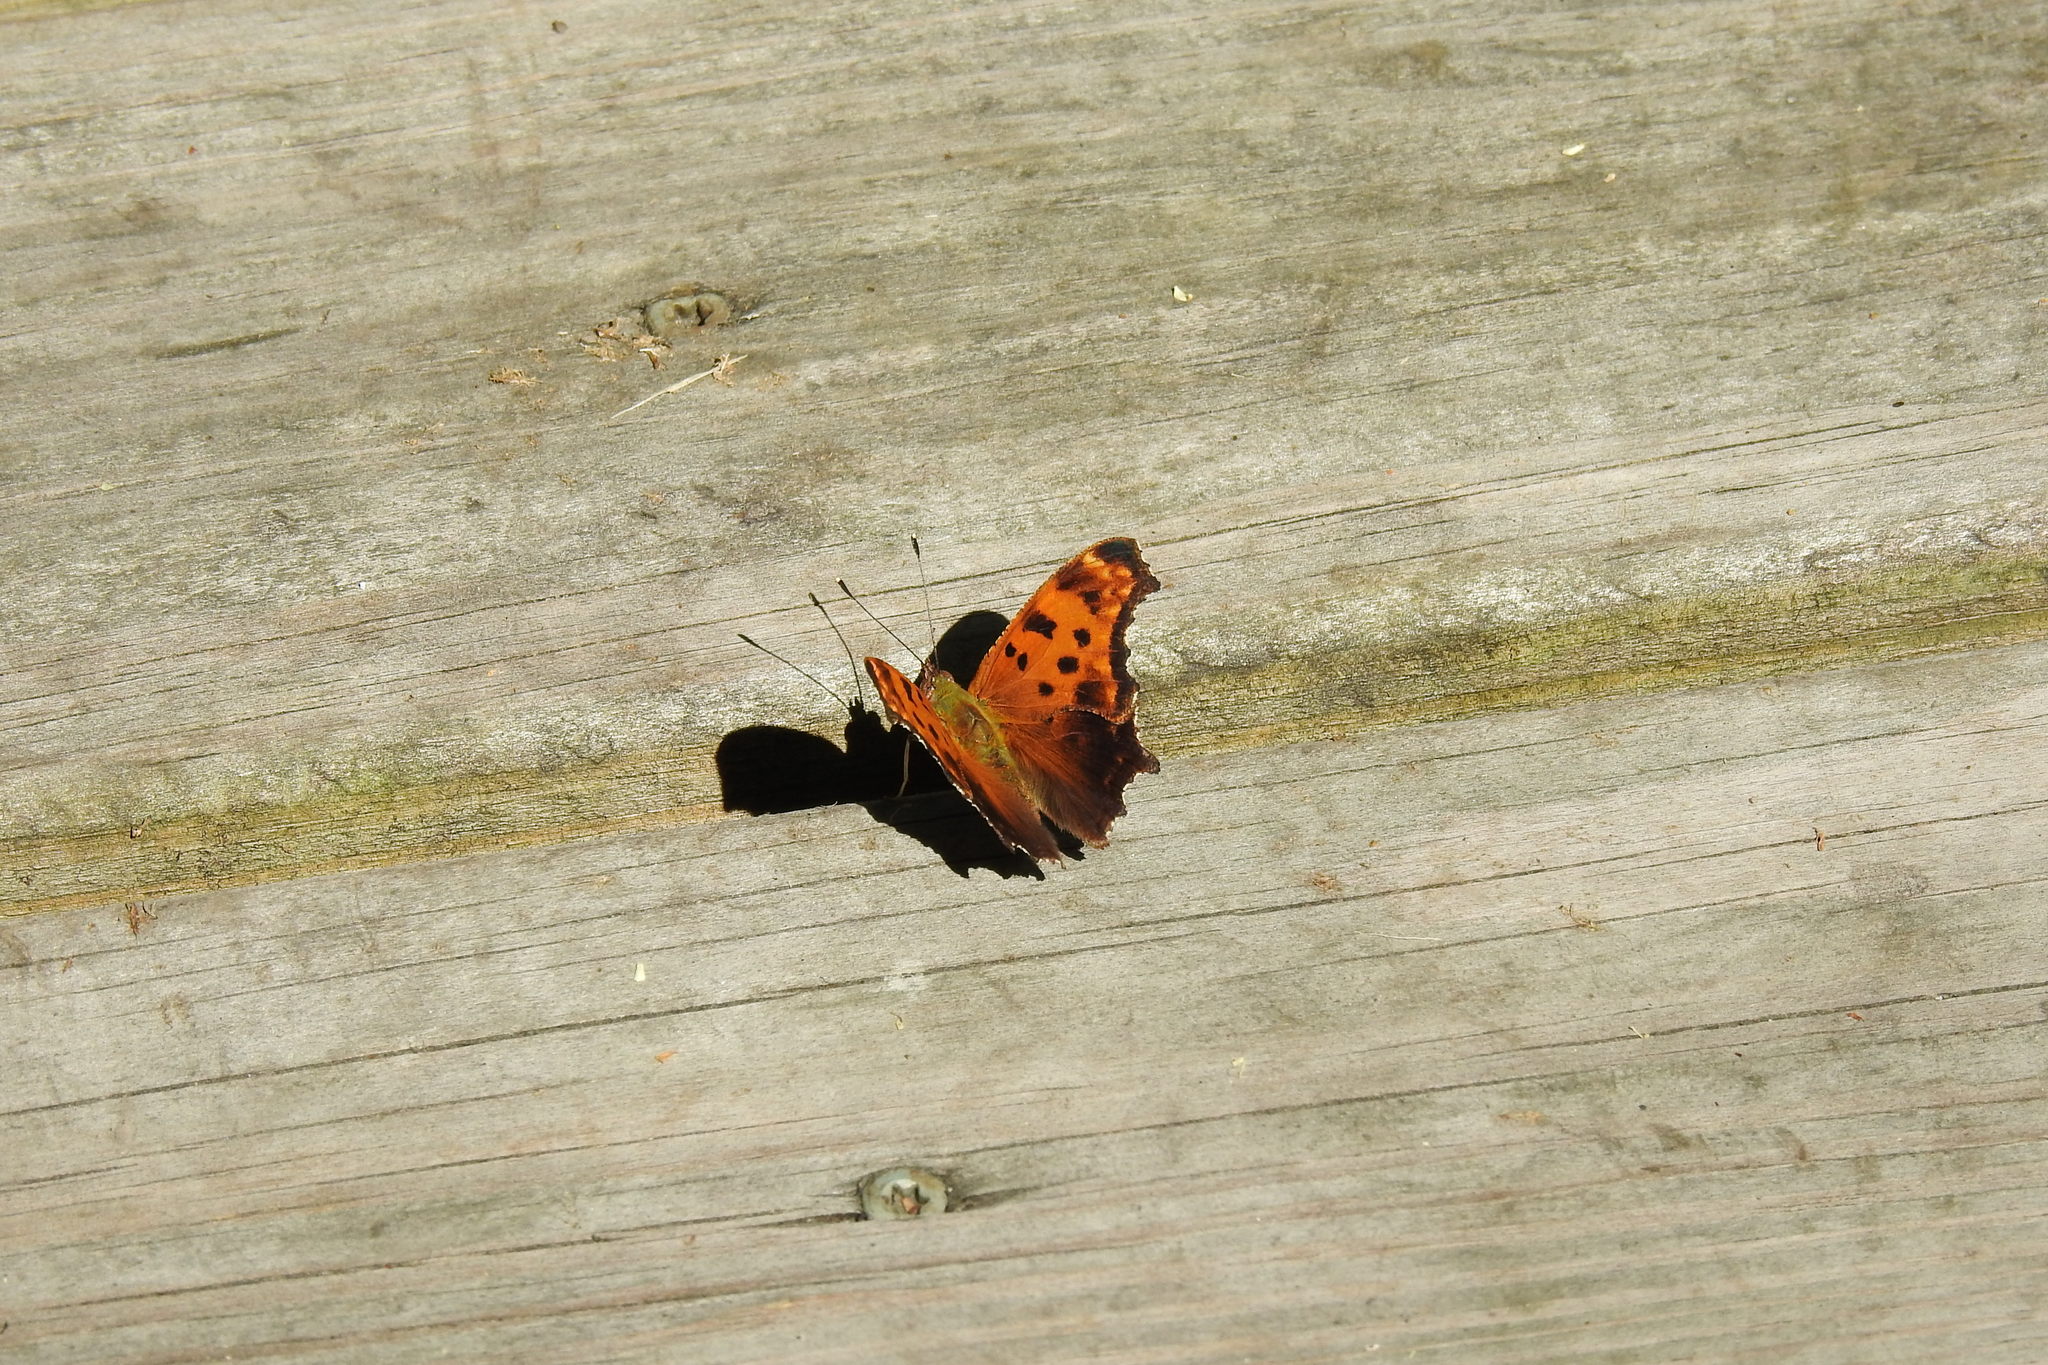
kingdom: Animalia
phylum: Arthropoda
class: Insecta
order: Lepidoptera
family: Nymphalidae
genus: Polygonia
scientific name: Polygonia comma
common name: Eastern comma
